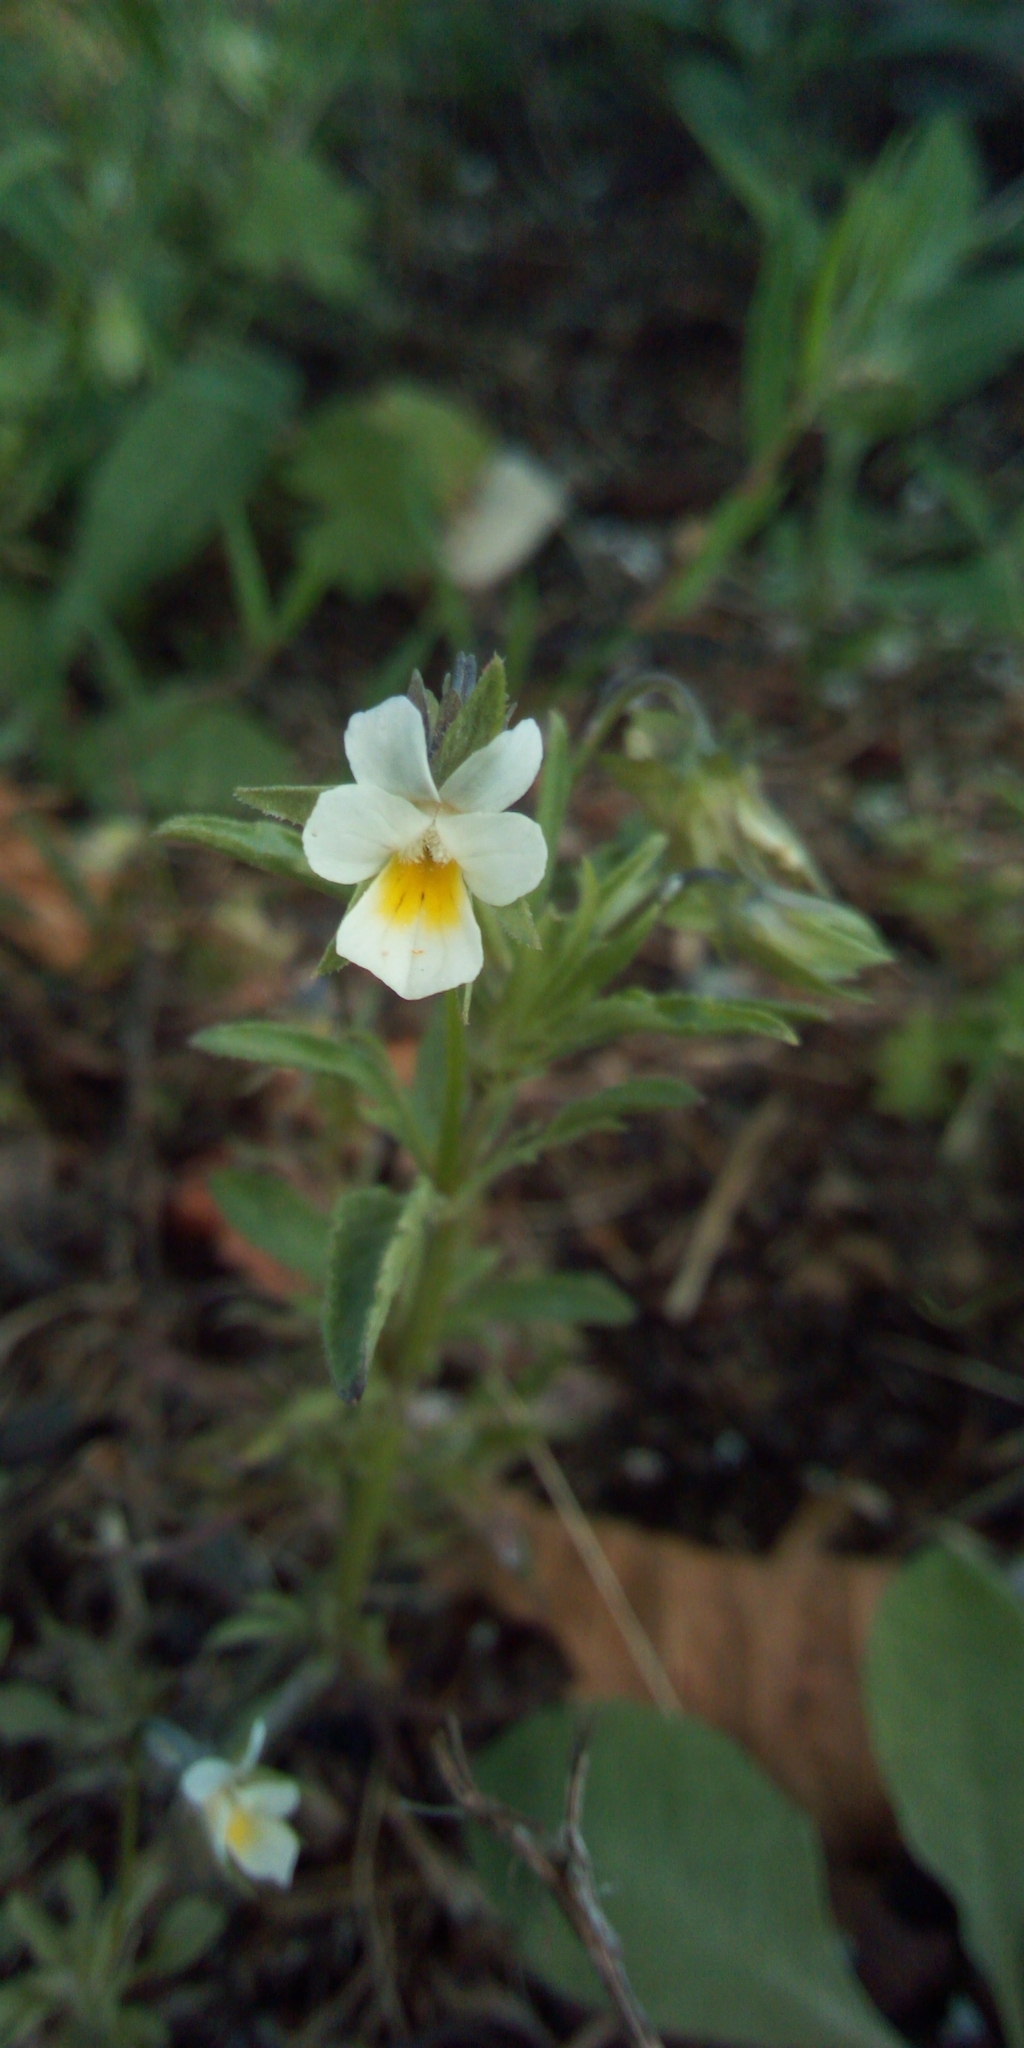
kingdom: Plantae
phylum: Tracheophyta
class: Magnoliopsida
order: Malpighiales
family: Violaceae
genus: Viola
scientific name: Viola arvensis
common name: Field pansy
